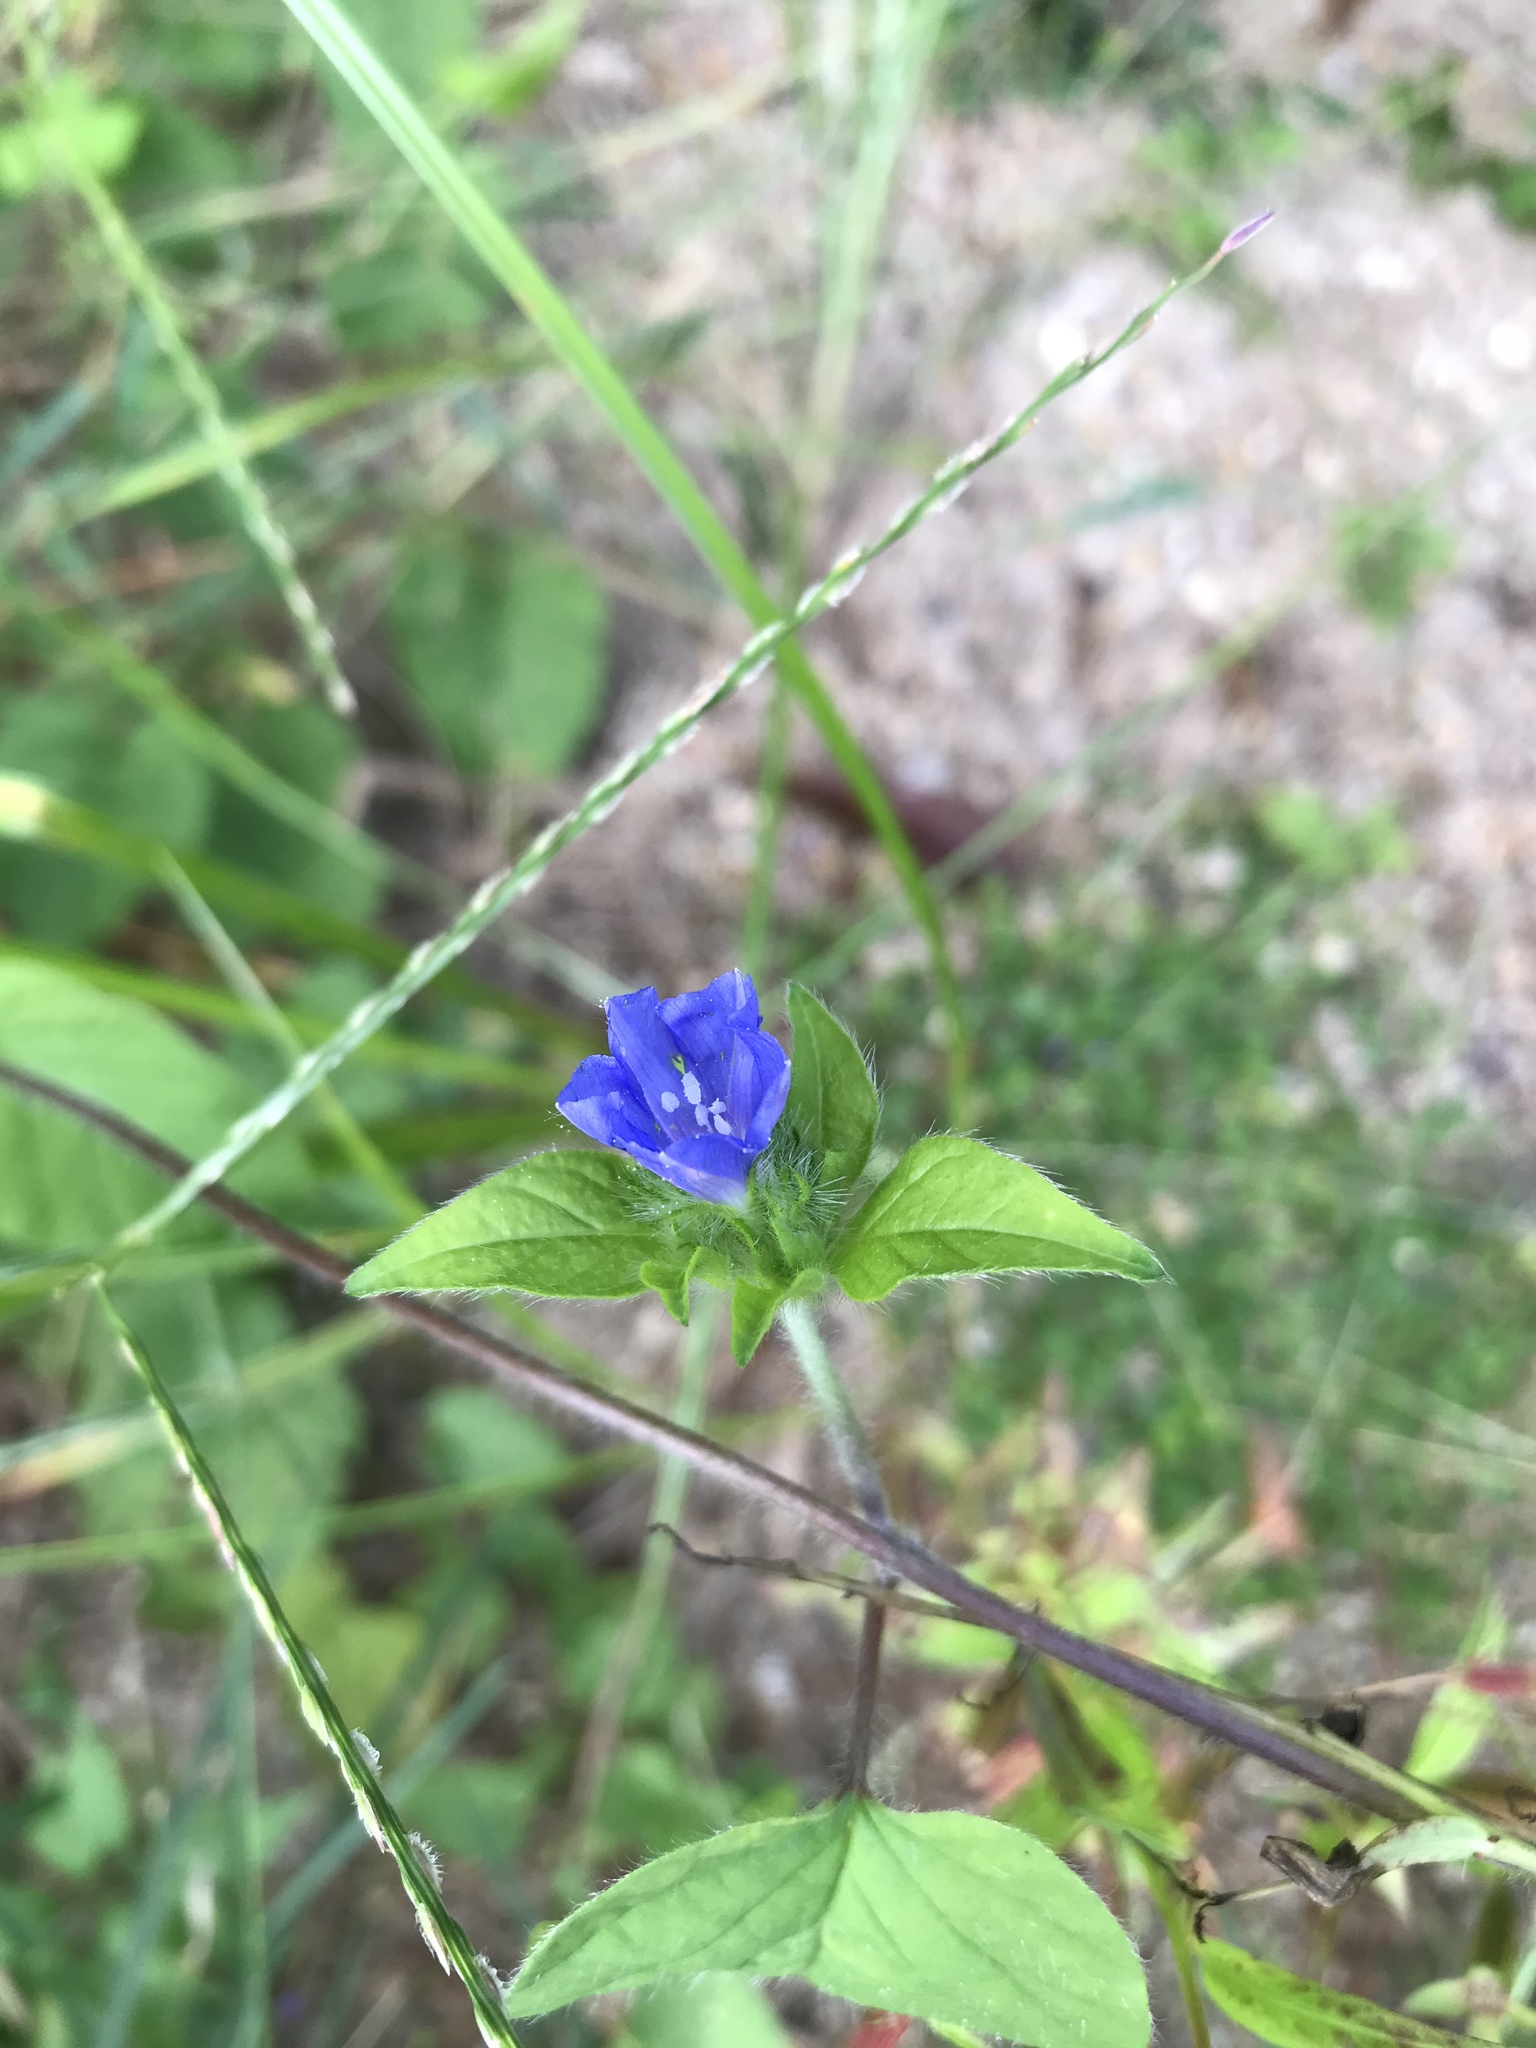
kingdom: Plantae
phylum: Tracheophyta
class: Magnoliopsida
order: Solanales
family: Convolvulaceae
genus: Jacquemontia
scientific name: Jacquemontia tamnifolia
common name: Hairy clustervine
